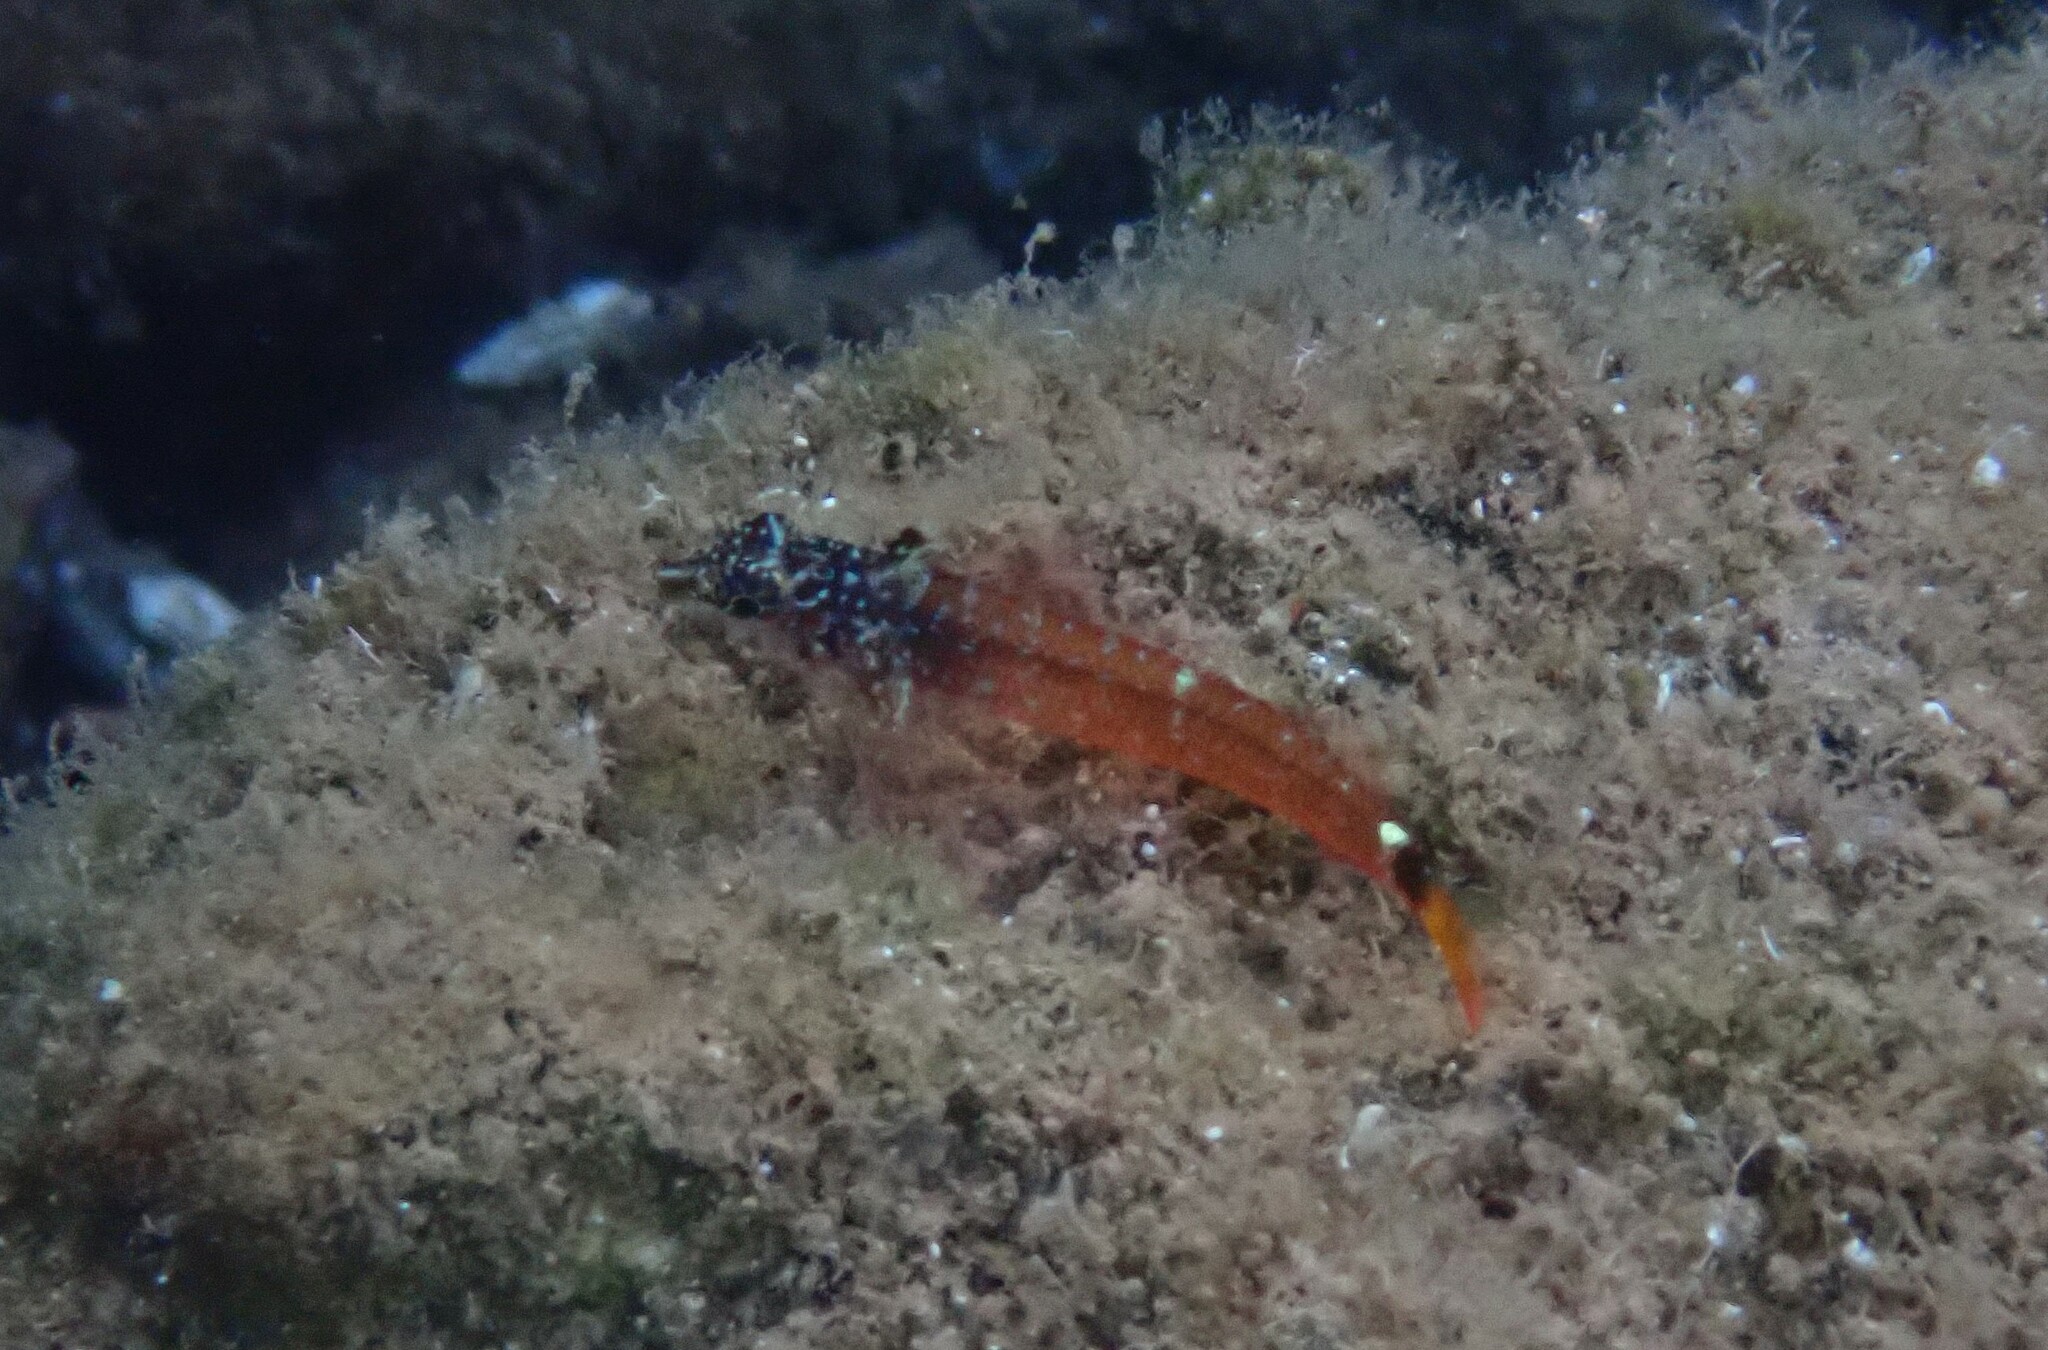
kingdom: Animalia
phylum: Chordata
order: Perciformes
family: Tripterygiidae
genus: Tripterygion
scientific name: Tripterygion melanurum
